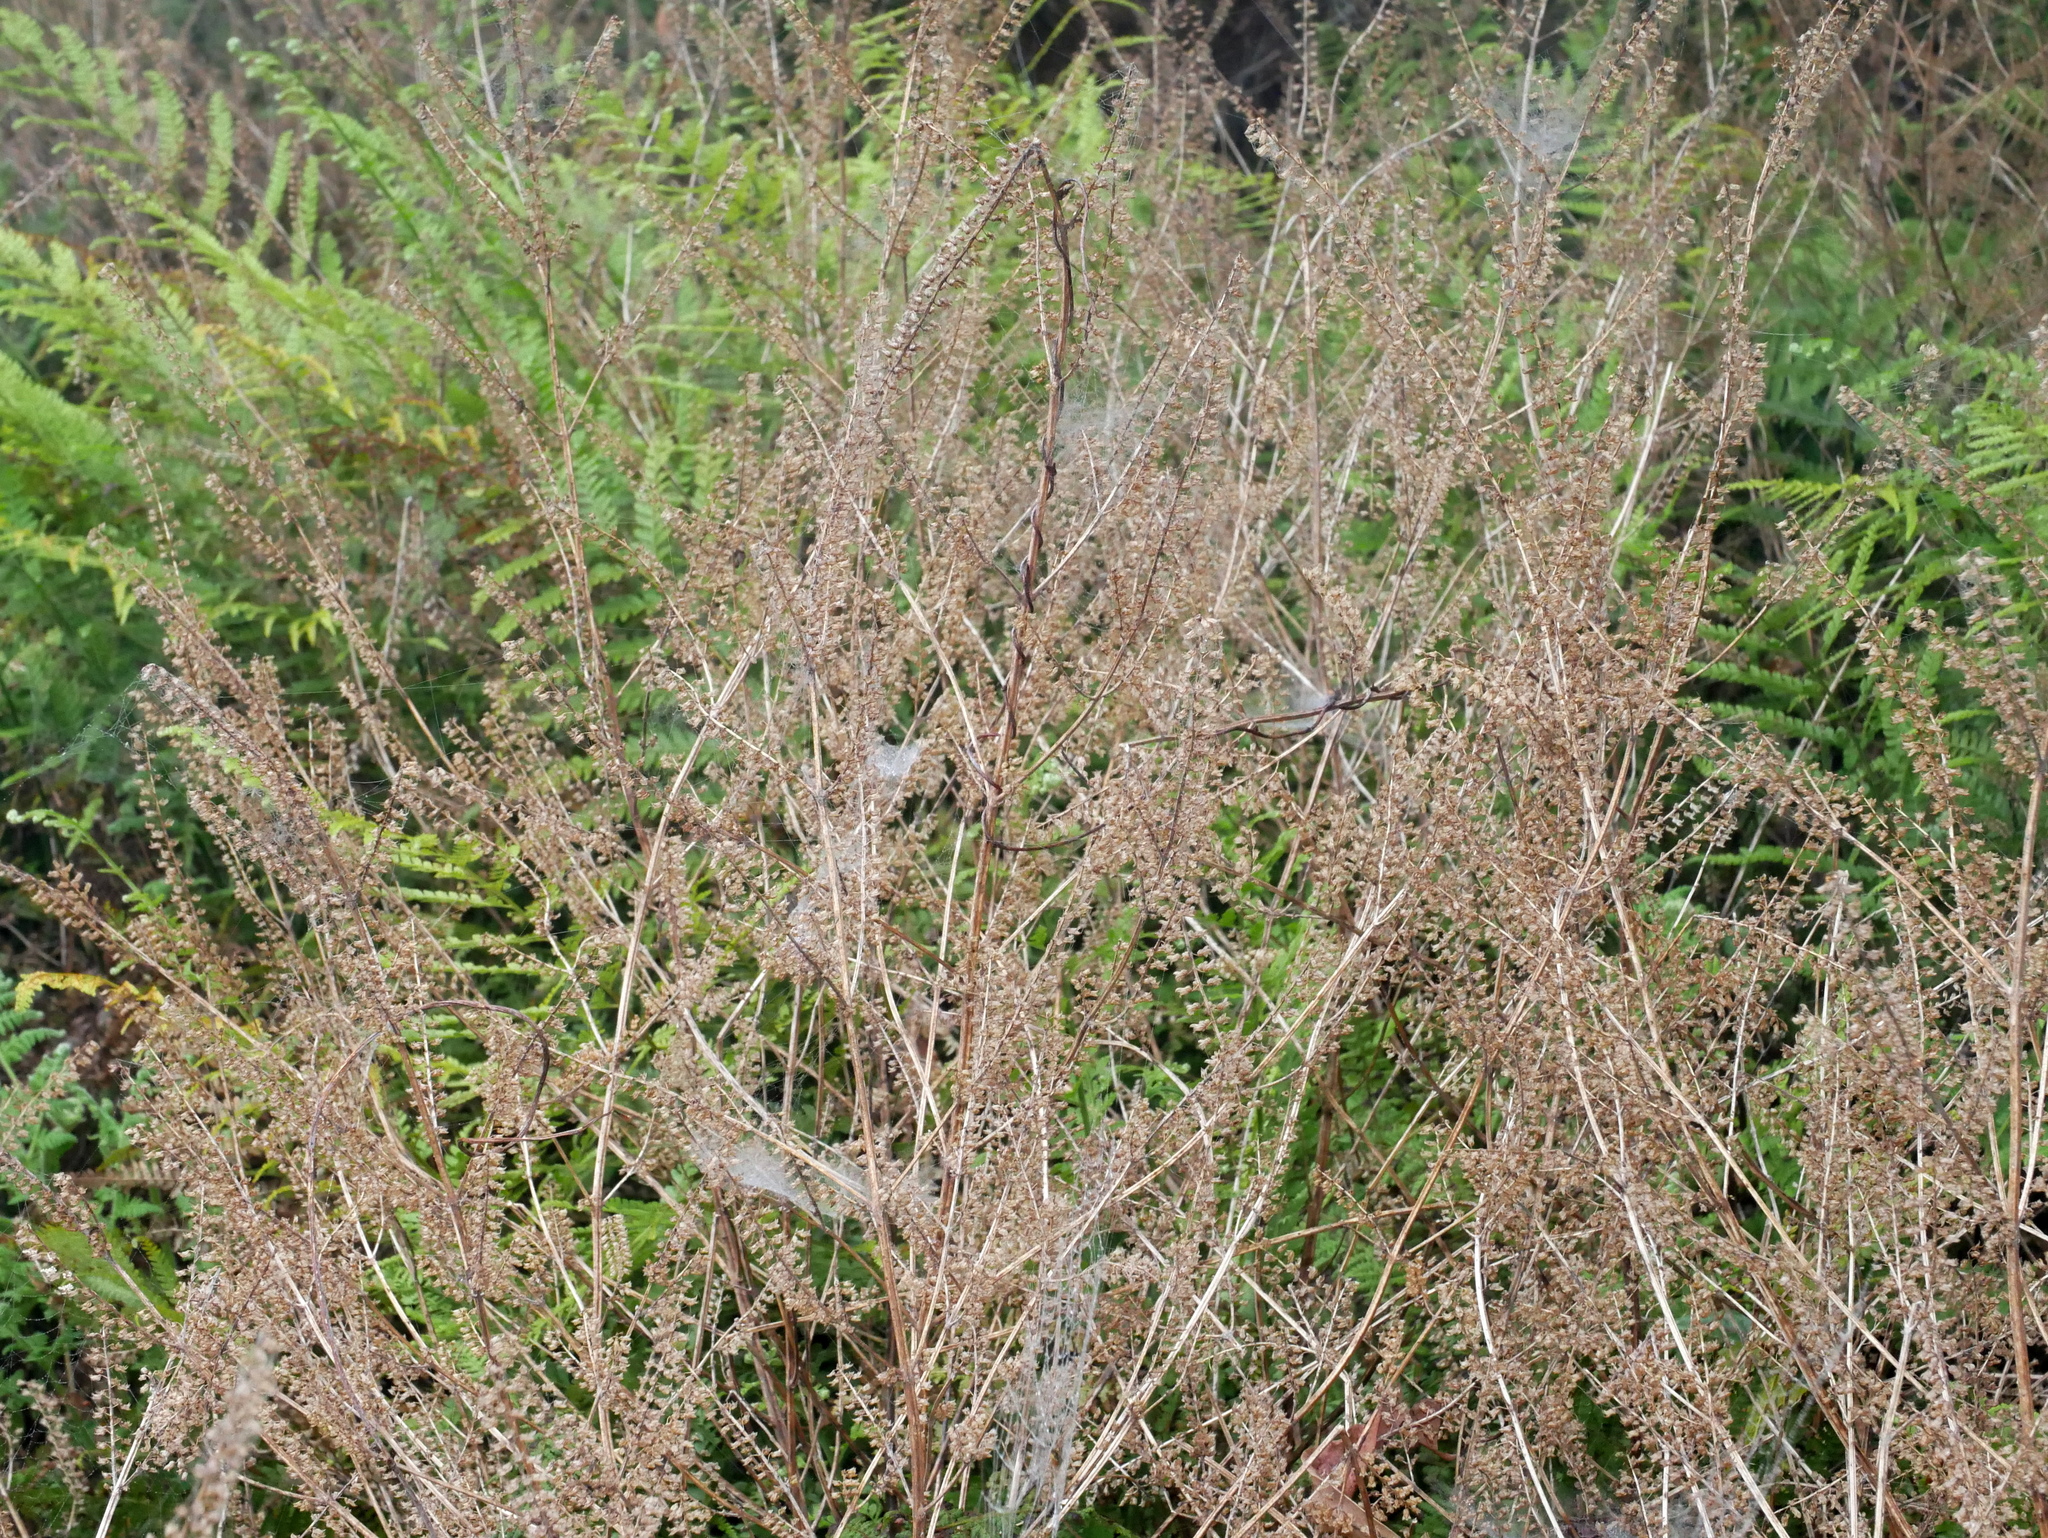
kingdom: Plantae
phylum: Tracheophyta
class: Magnoliopsida
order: Lamiales
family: Lamiaceae
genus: Perilla
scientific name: Perilla frutescens
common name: Perilla
